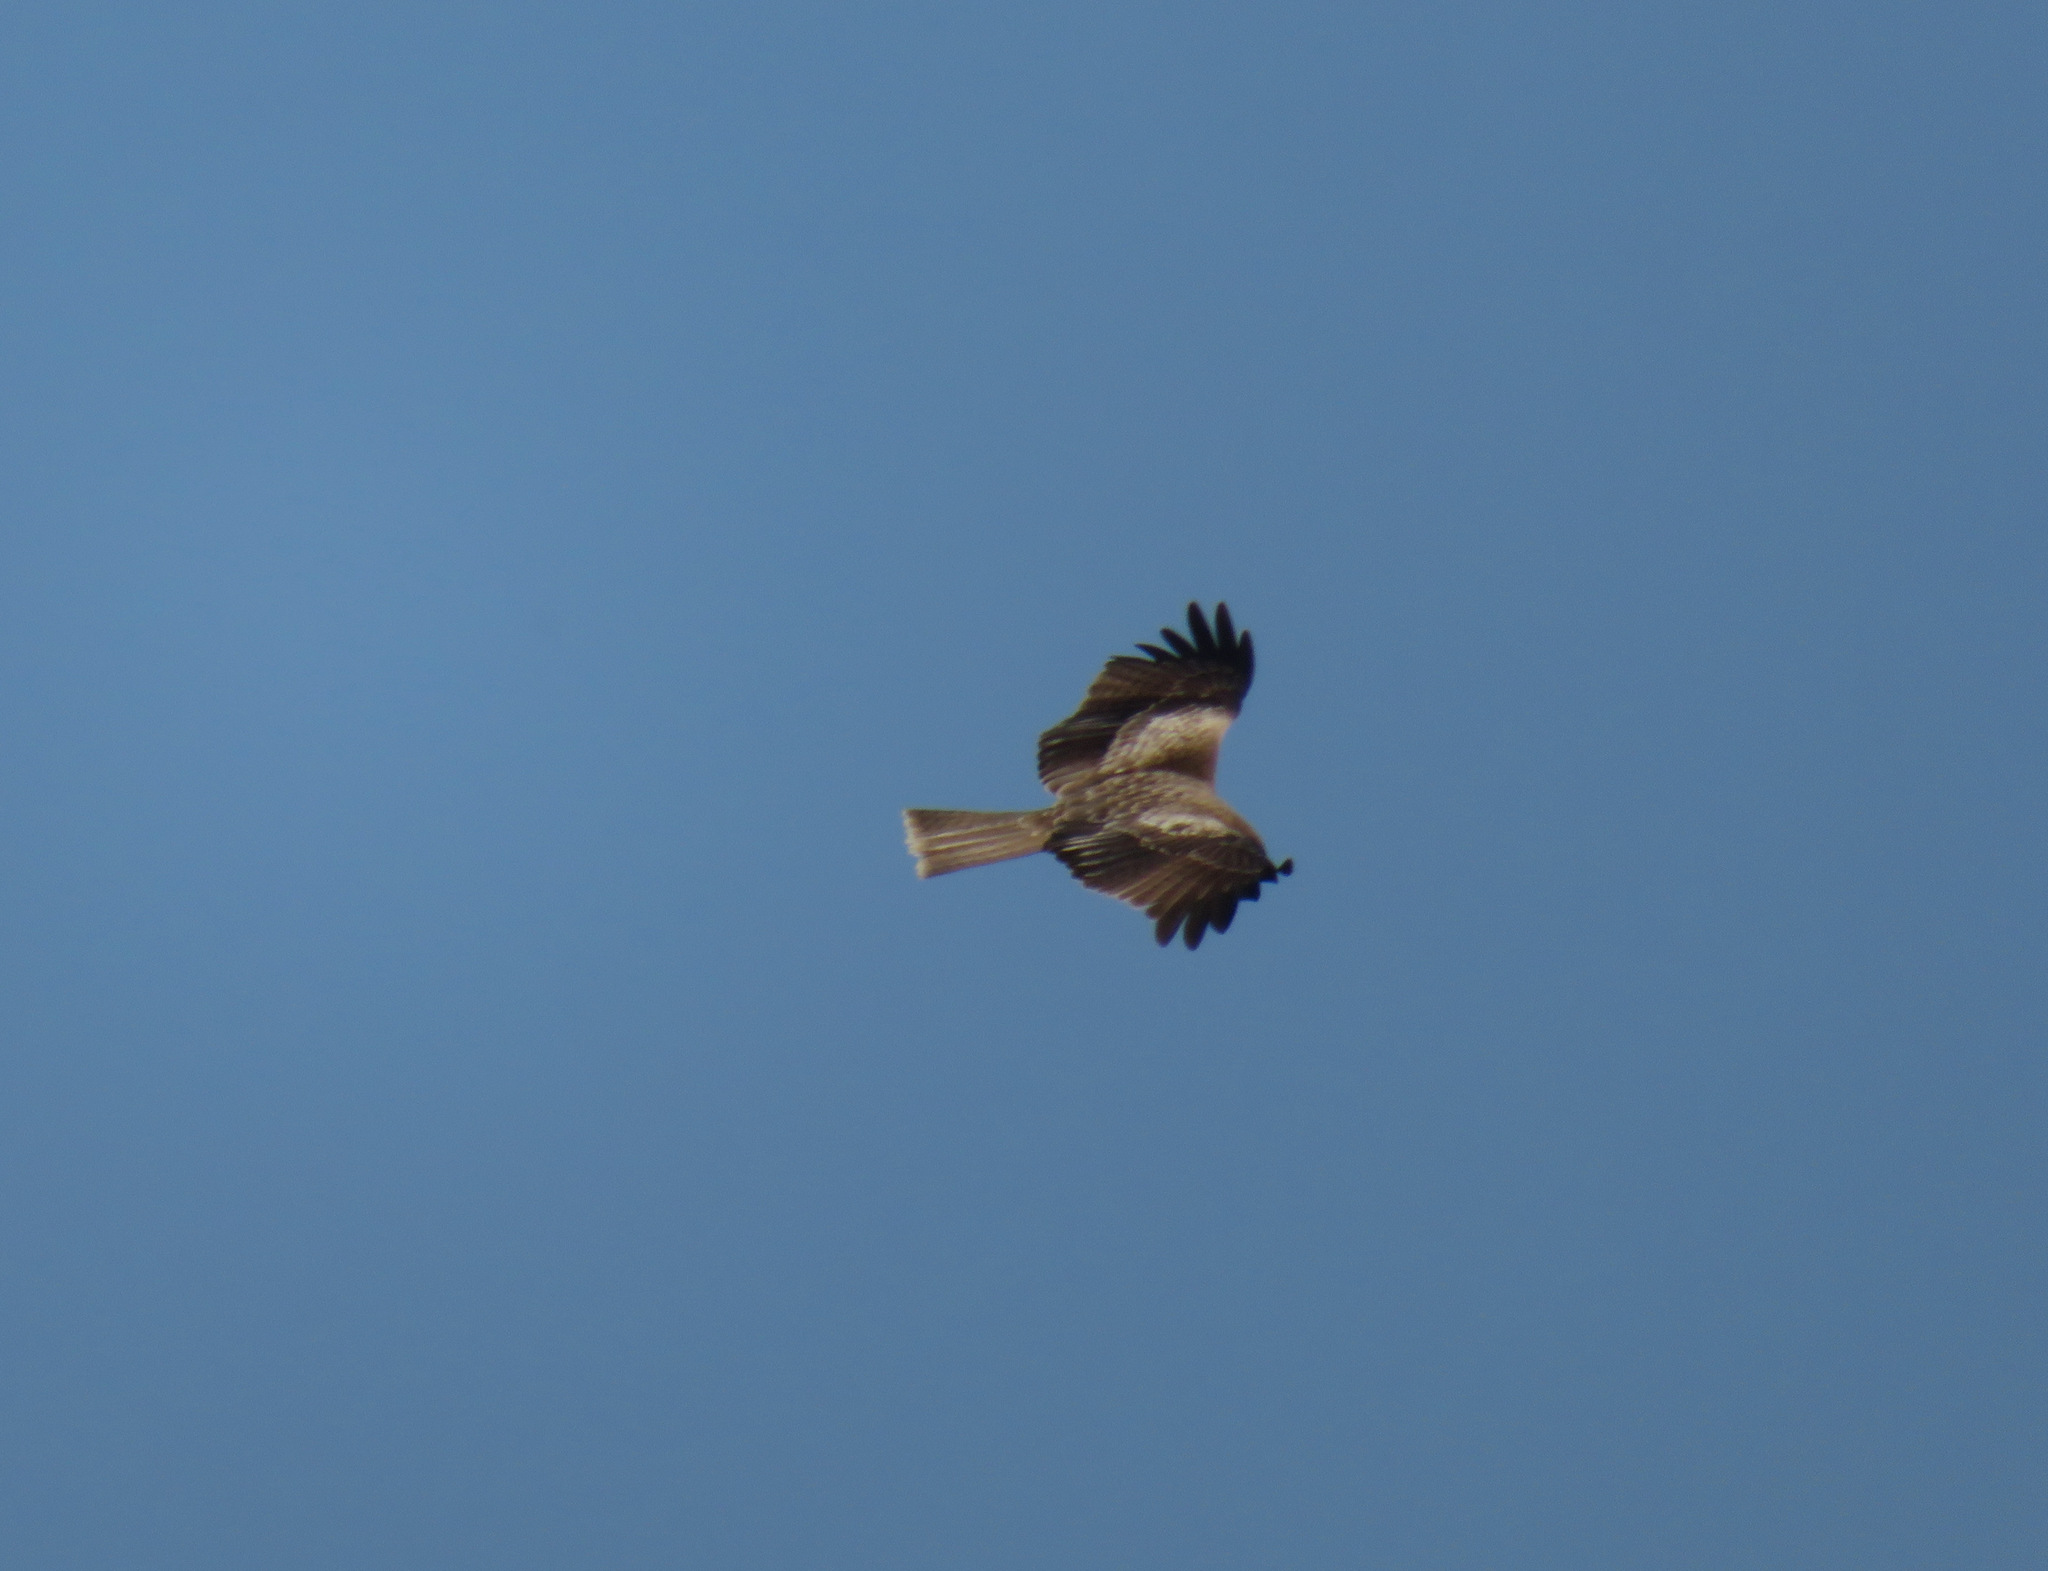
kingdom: Animalia
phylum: Chordata
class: Aves
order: Accipitriformes
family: Accipitridae
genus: Milvus
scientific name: Milvus migrans
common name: Black kite
